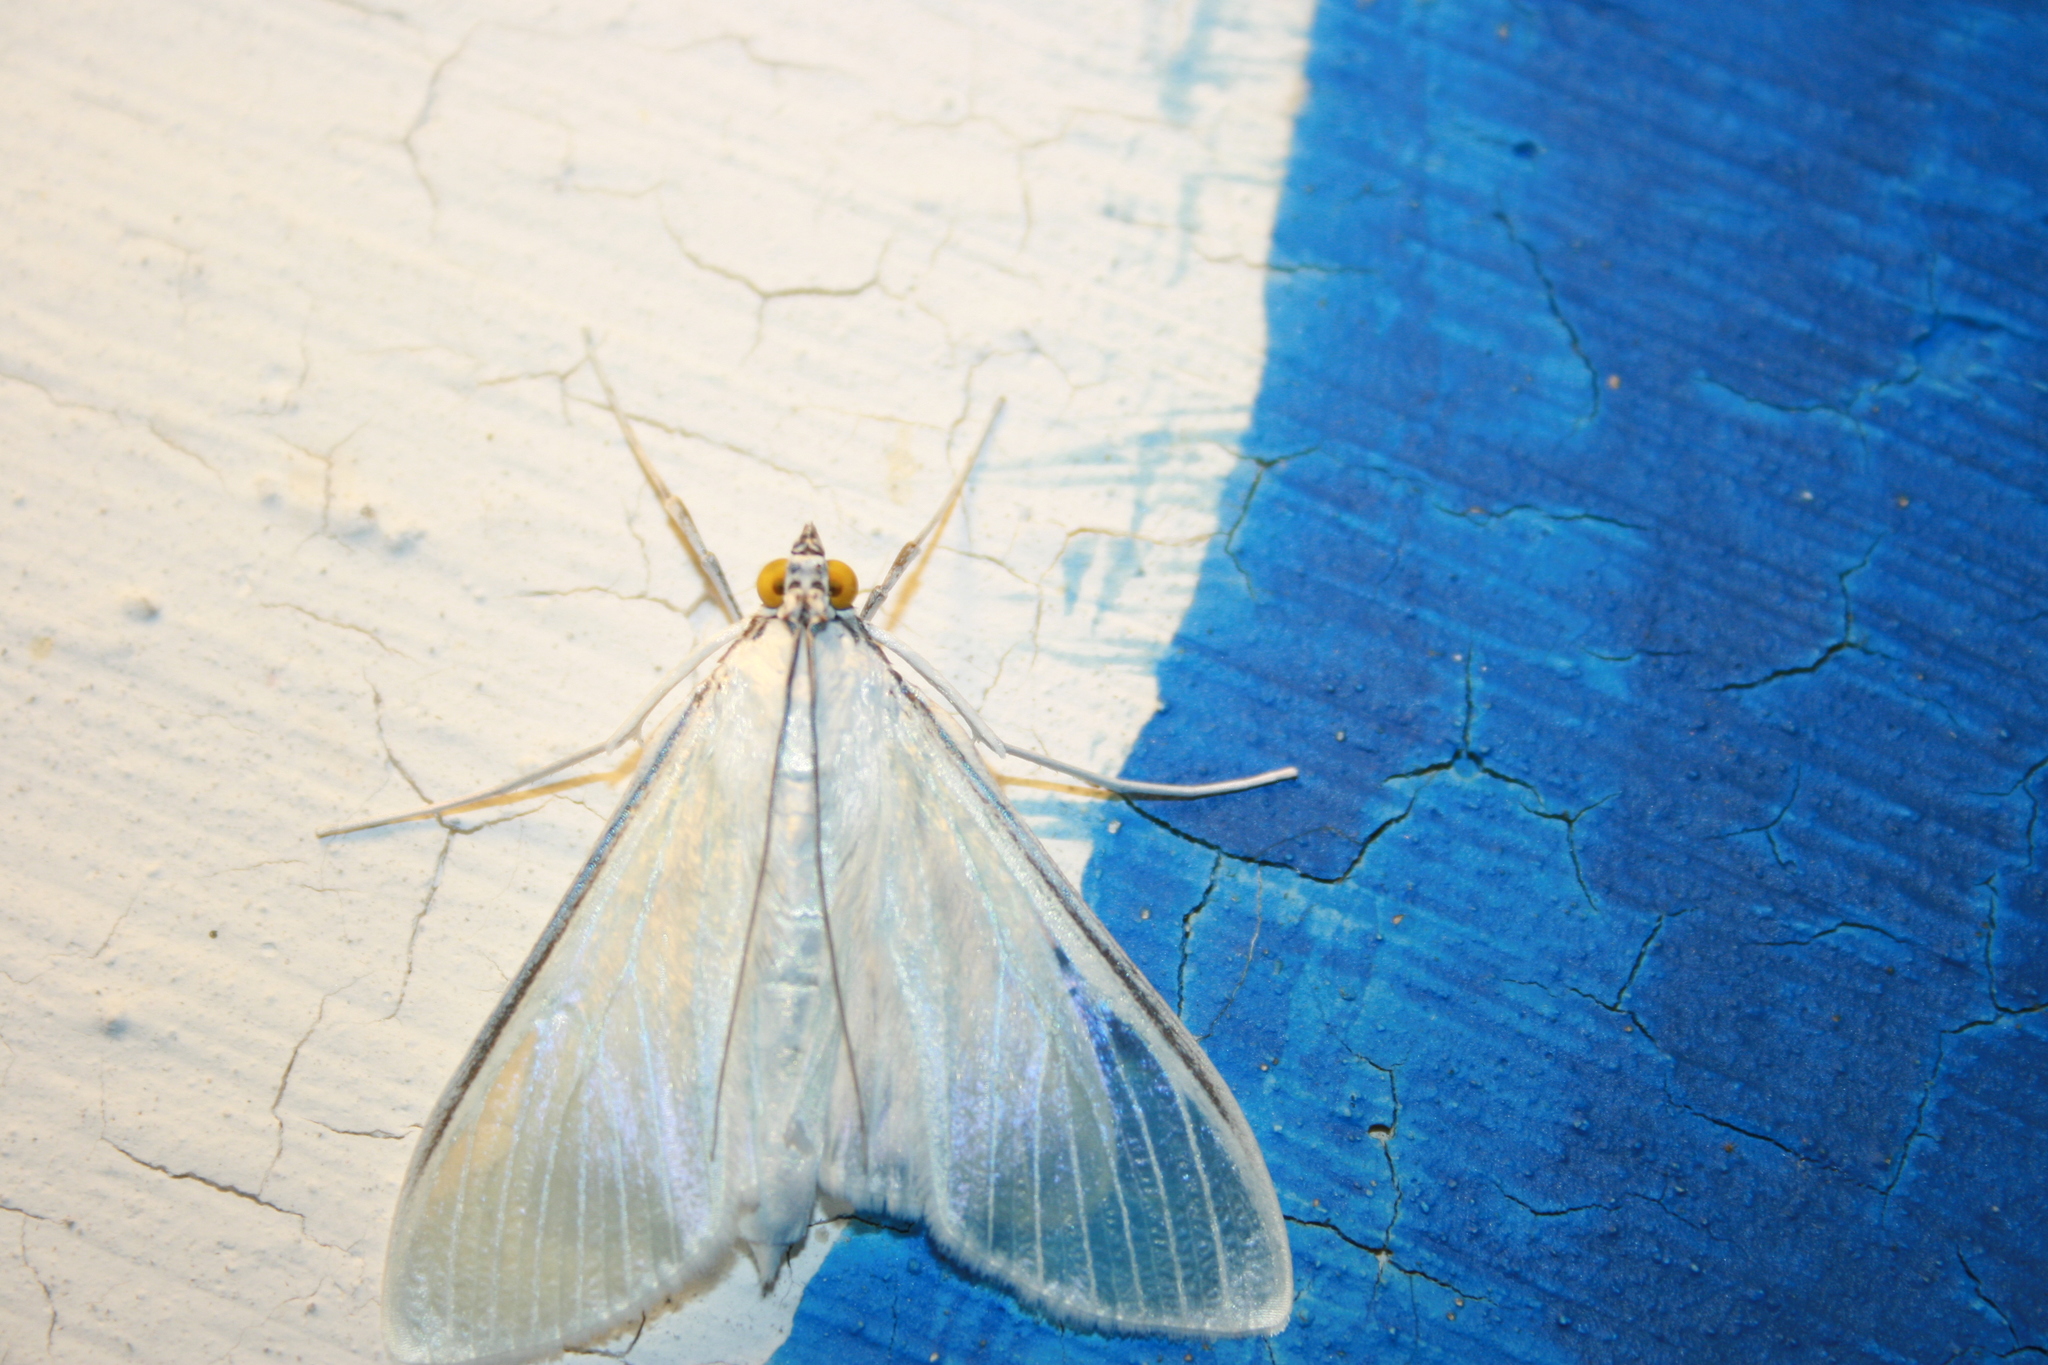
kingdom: Animalia
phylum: Arthropoda
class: Insecta
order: Lepidoptera
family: Crambidae
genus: Palpita
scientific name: Palpita flegia
